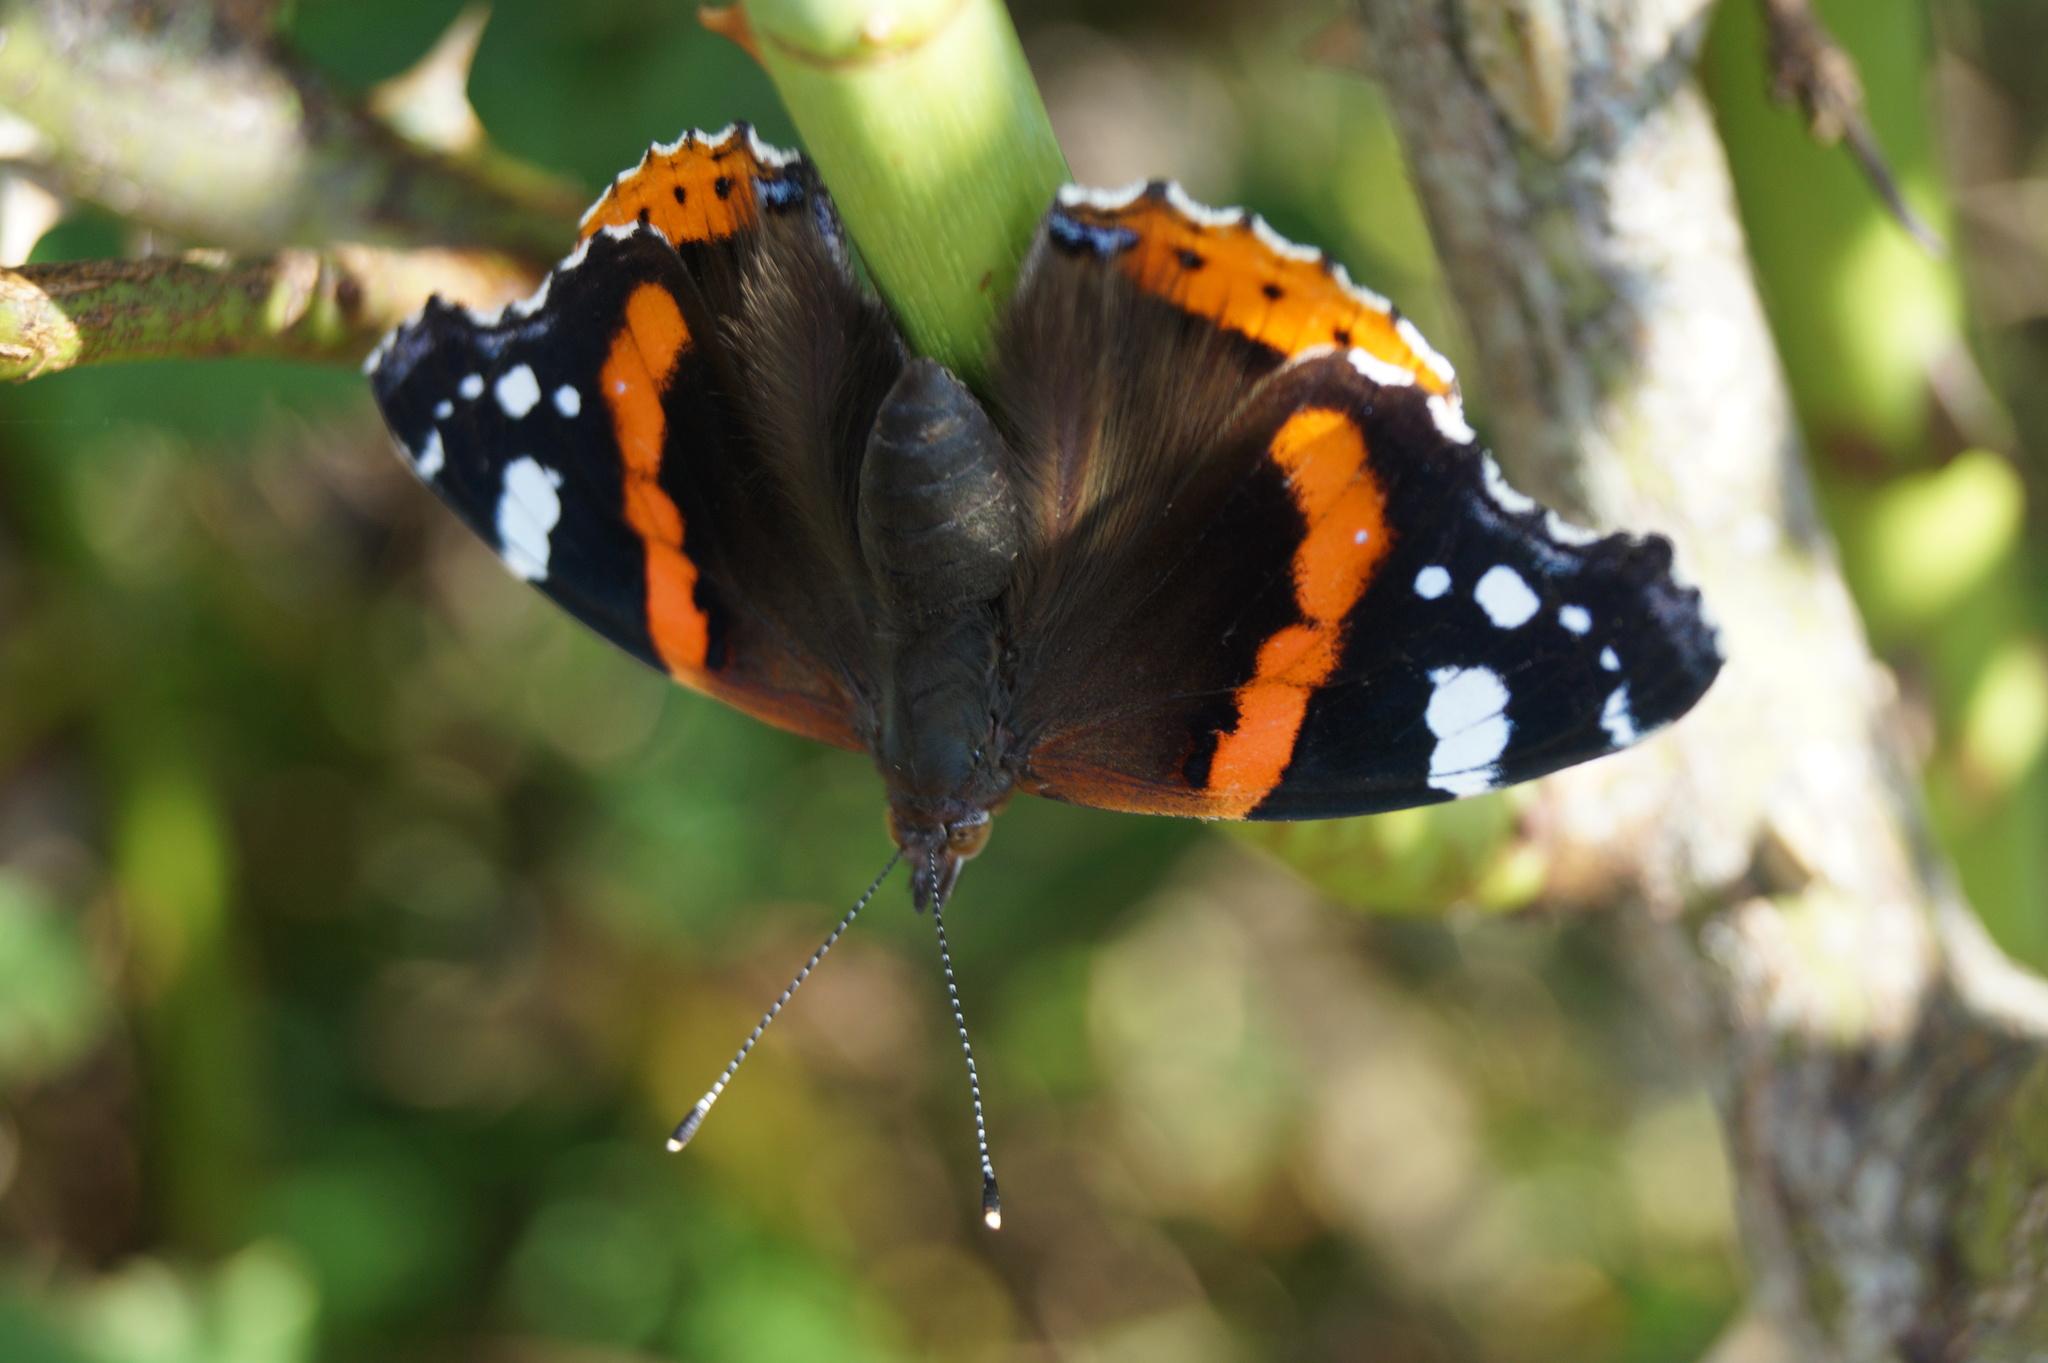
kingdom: Animalia
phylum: Arthropoda
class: Insecta
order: Lepidoptera
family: Nymphalidae
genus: Vanessa
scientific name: Vanessa atalanta
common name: Red admiral
